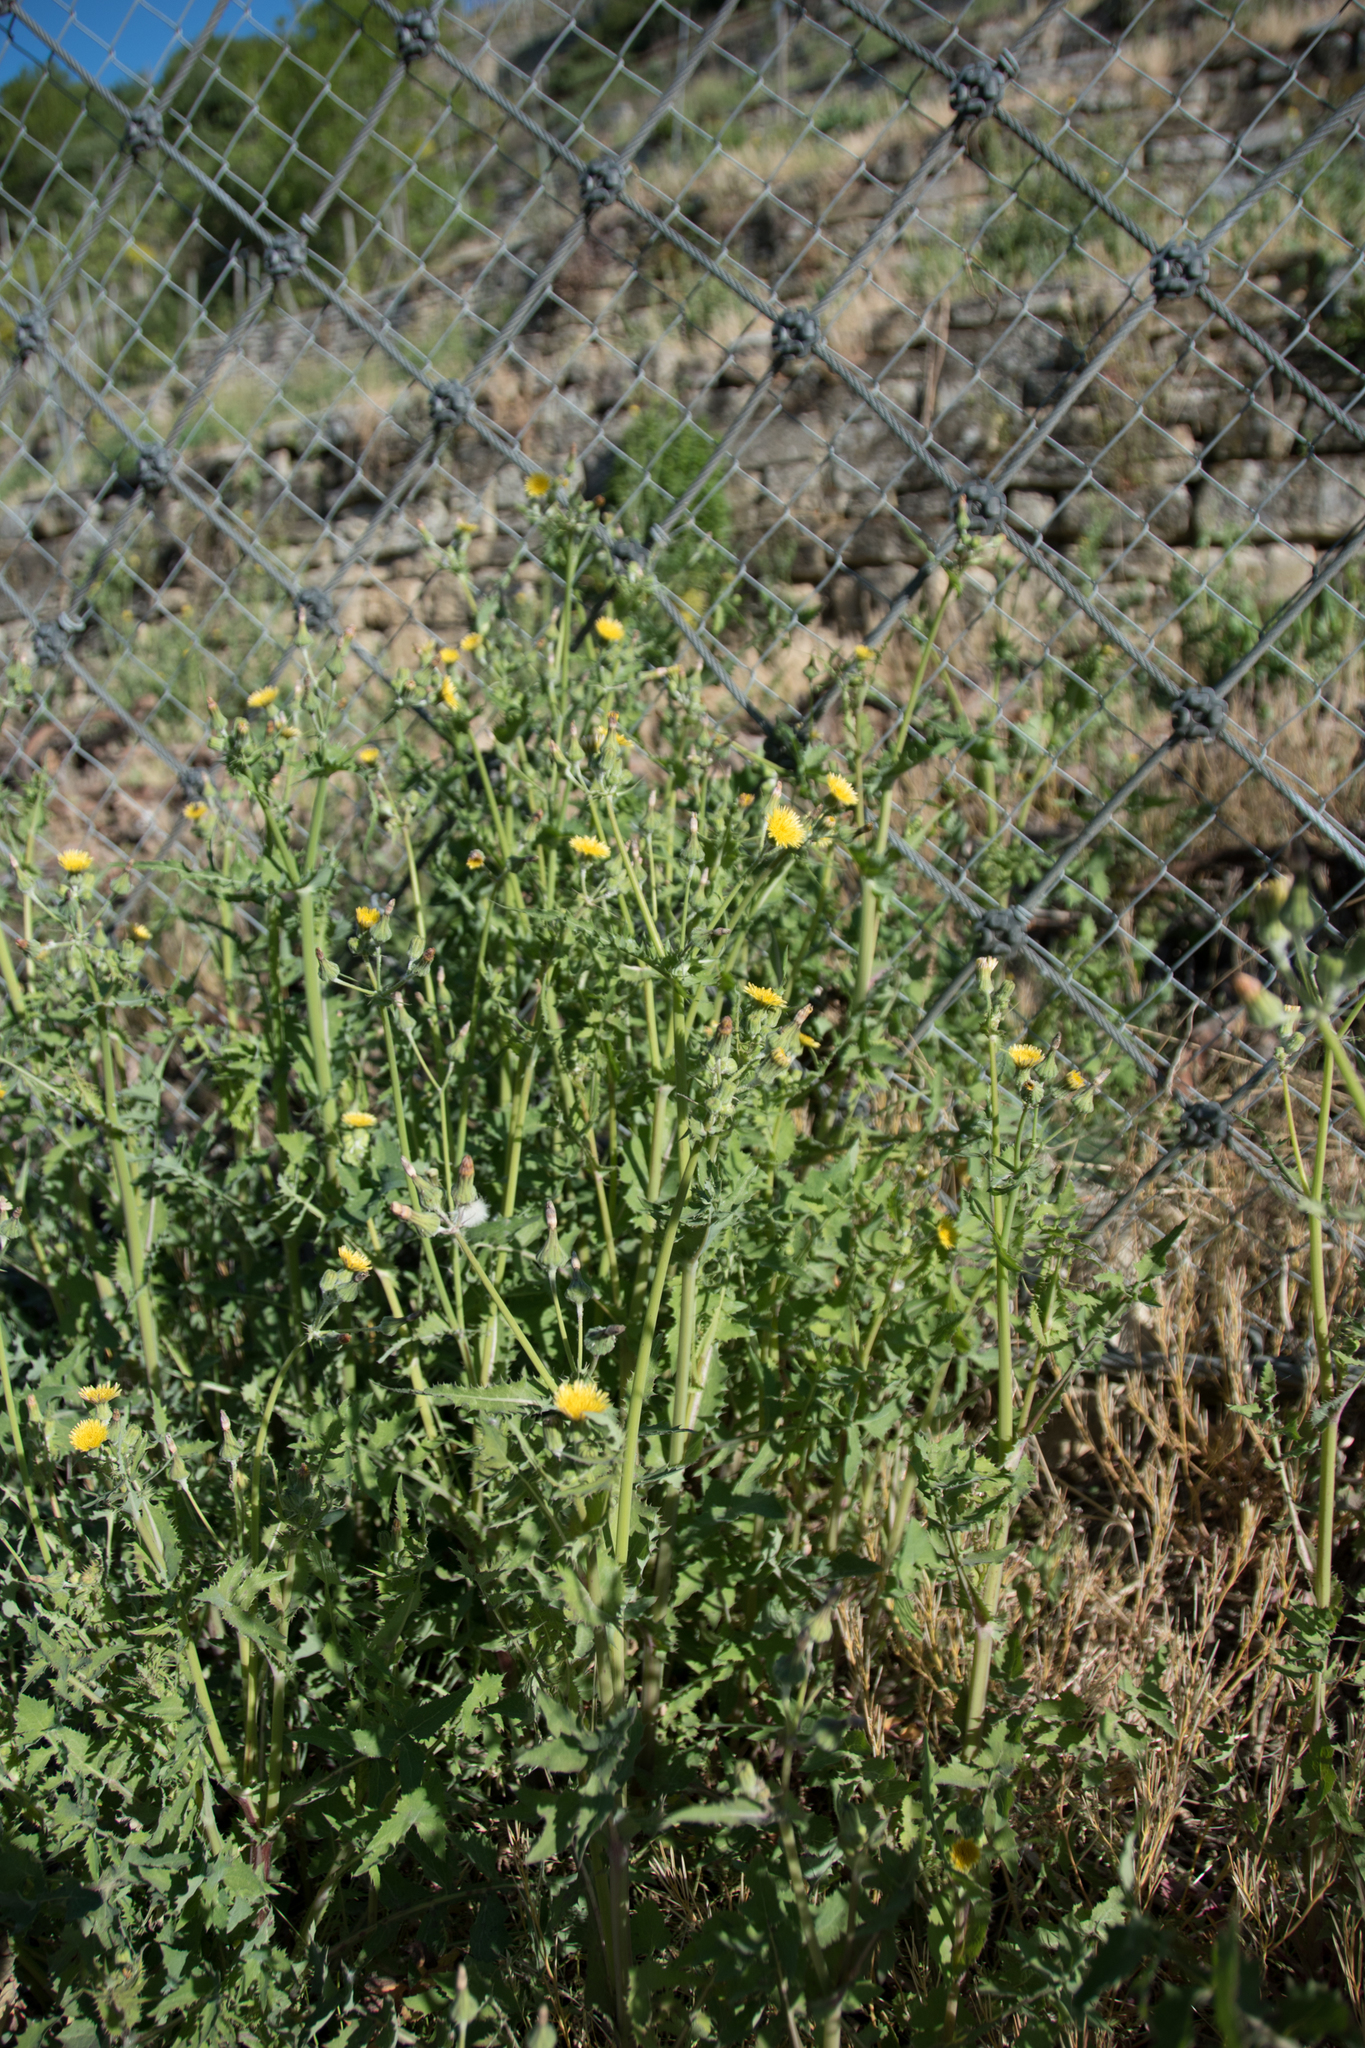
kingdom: Plantae
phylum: Tracheophyta
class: Magnoliopsida
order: Asterales
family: Asteraceae
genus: Sonchus
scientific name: Sonchus oleraceus
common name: Common sowthistle
